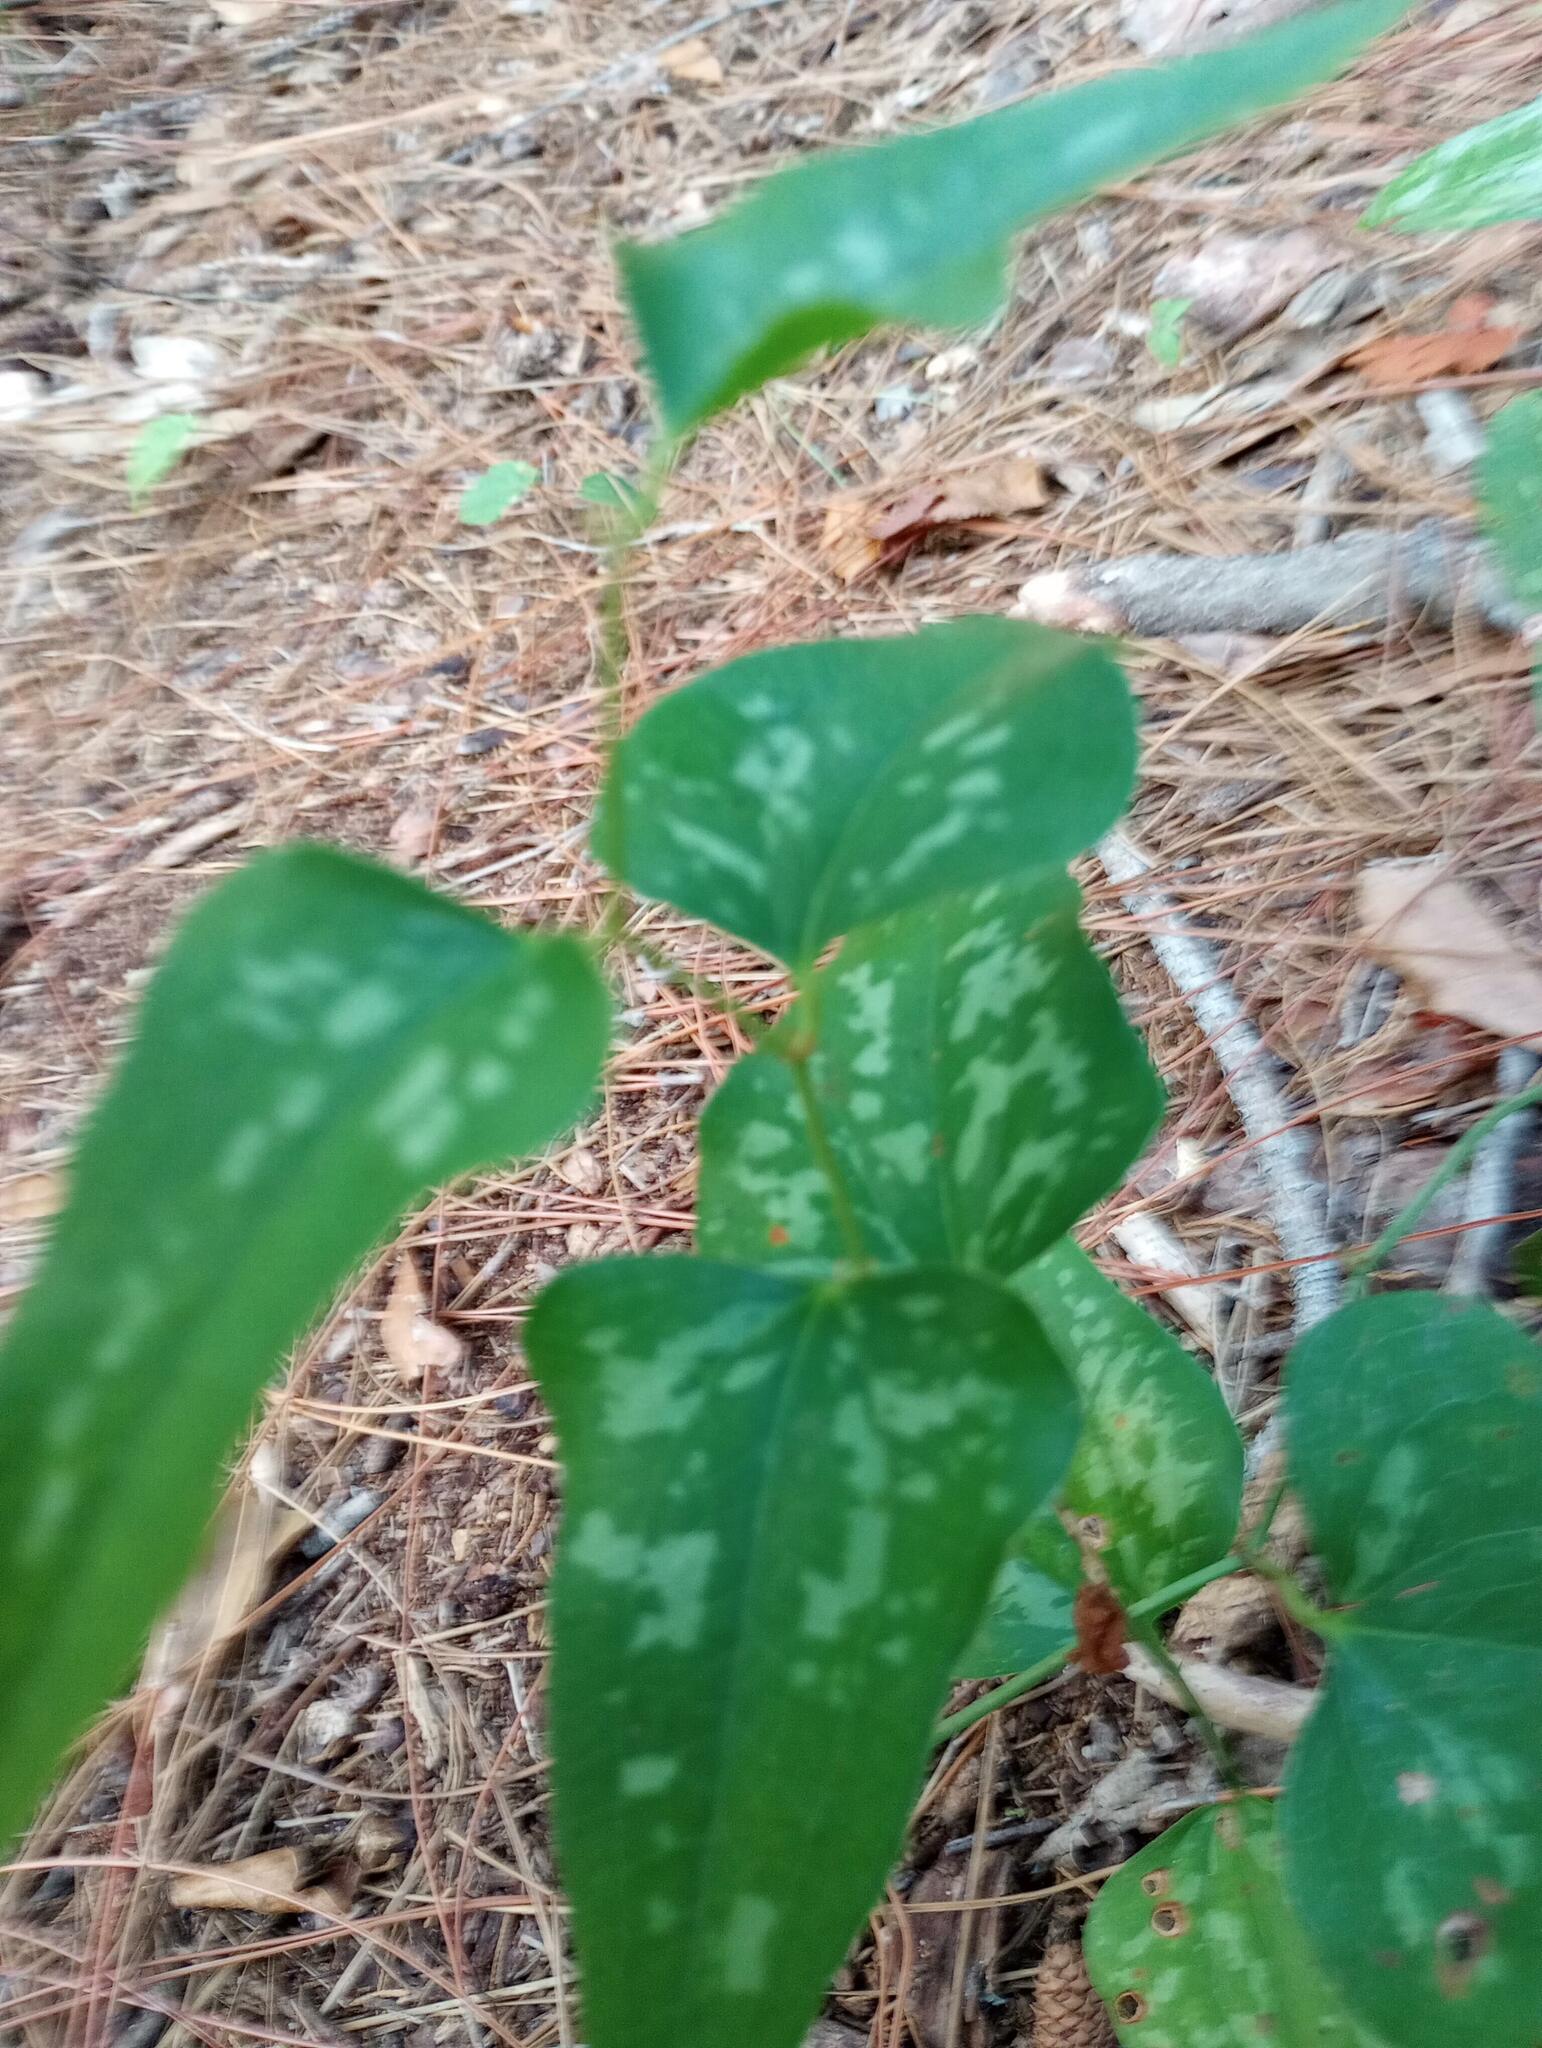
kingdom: Plantae
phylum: Tracheophyta
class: Liliopsida
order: Liliales
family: Smilacaceae
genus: Smilax
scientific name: Smilax bona-nox
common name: Catbrier
